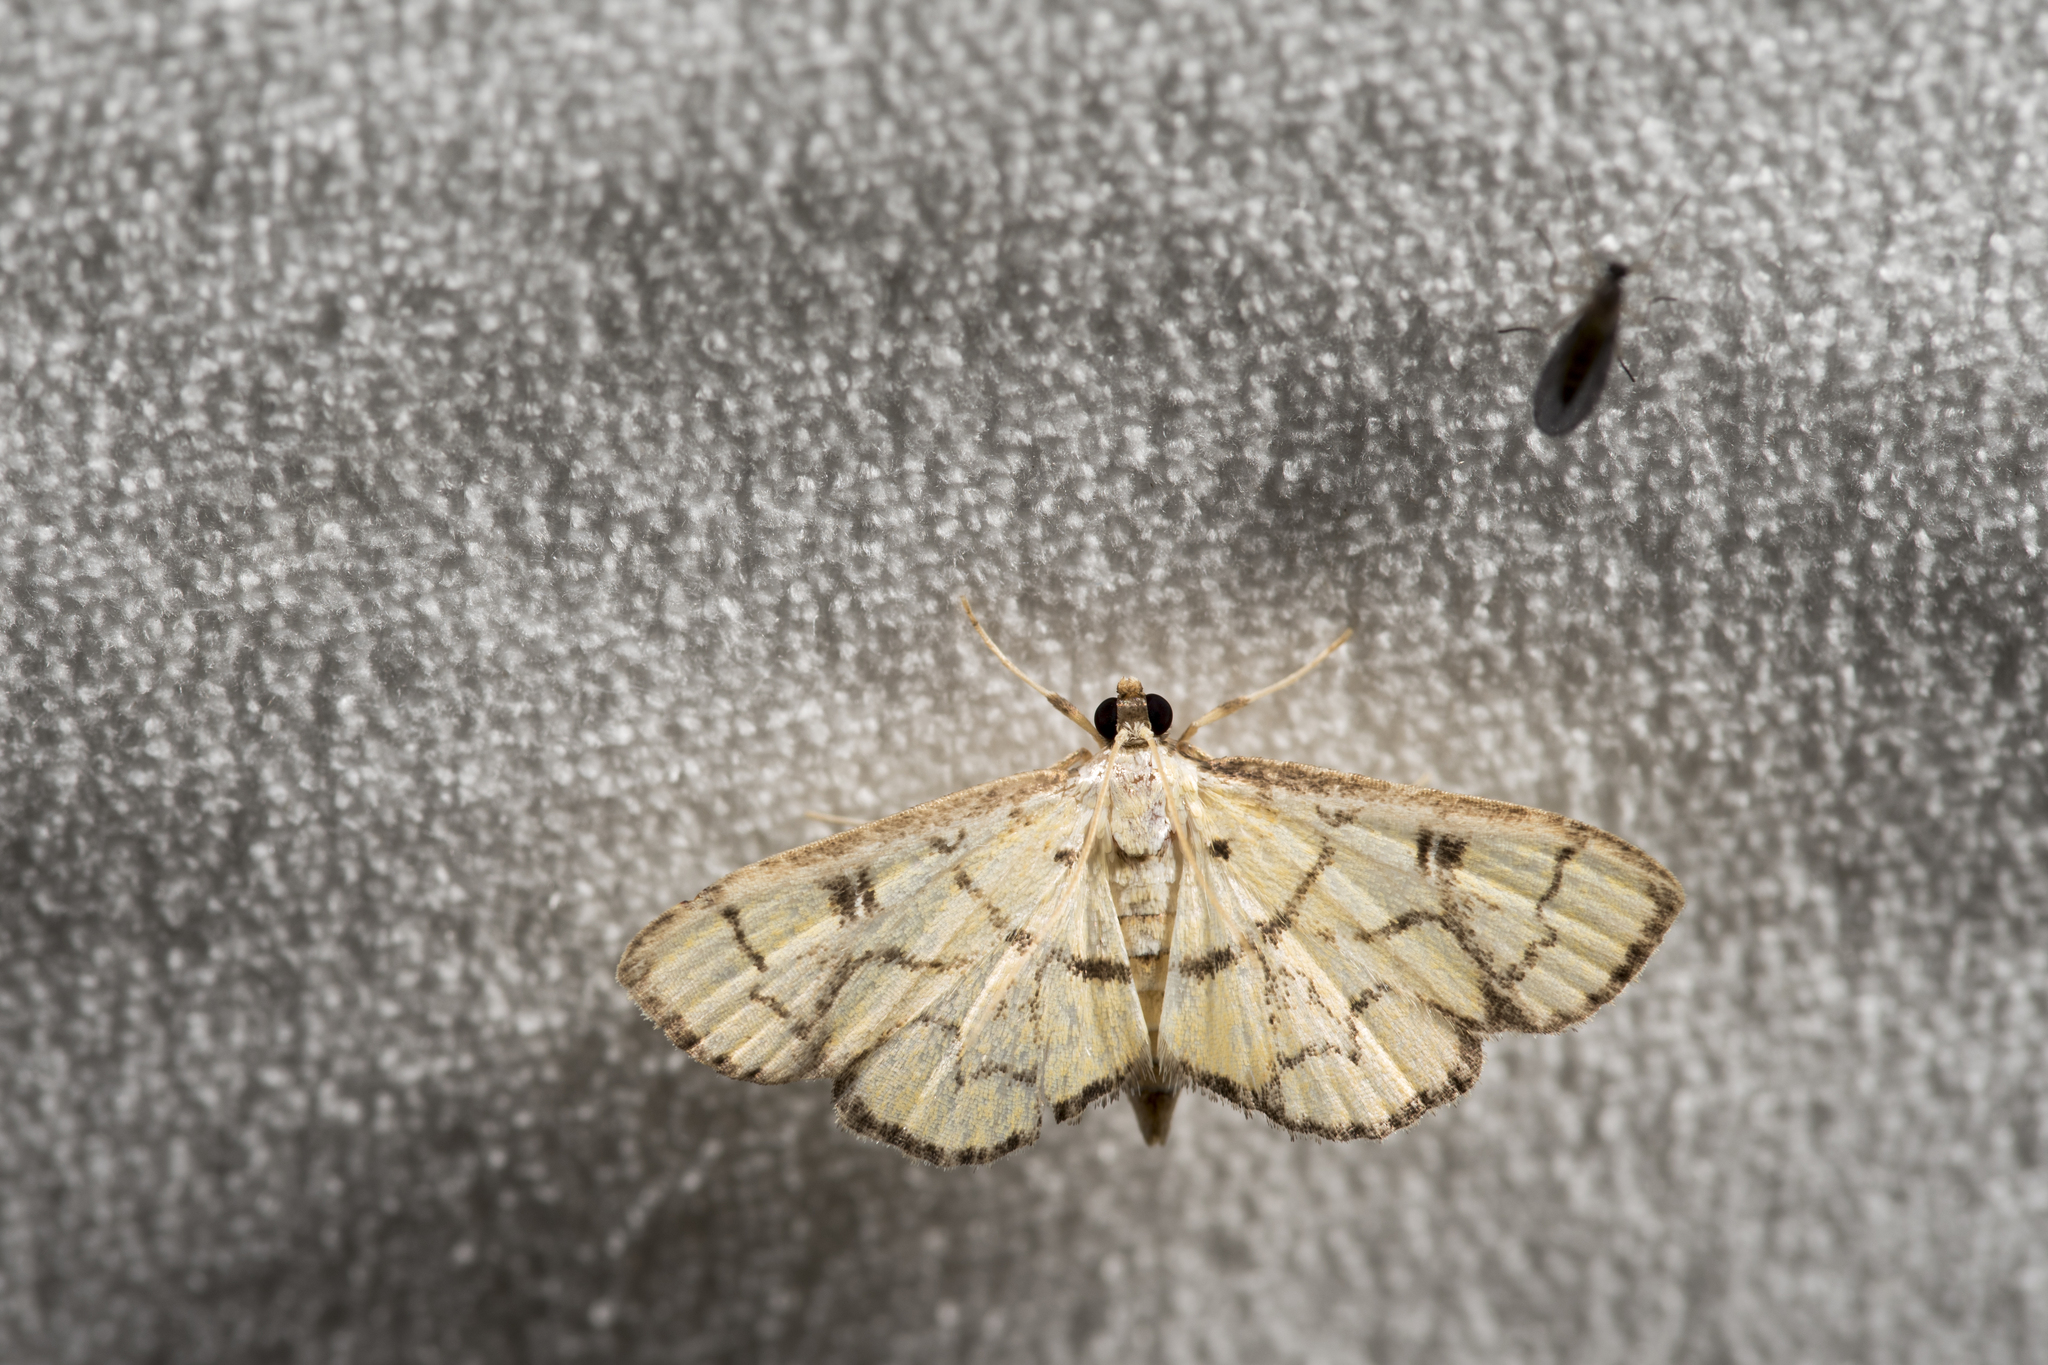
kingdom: Animalia
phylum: Arthropoda
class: Insecta
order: Lepidoptera
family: Crambidae
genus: Goniorhynchus
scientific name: Goniorhynchus butyrosa
